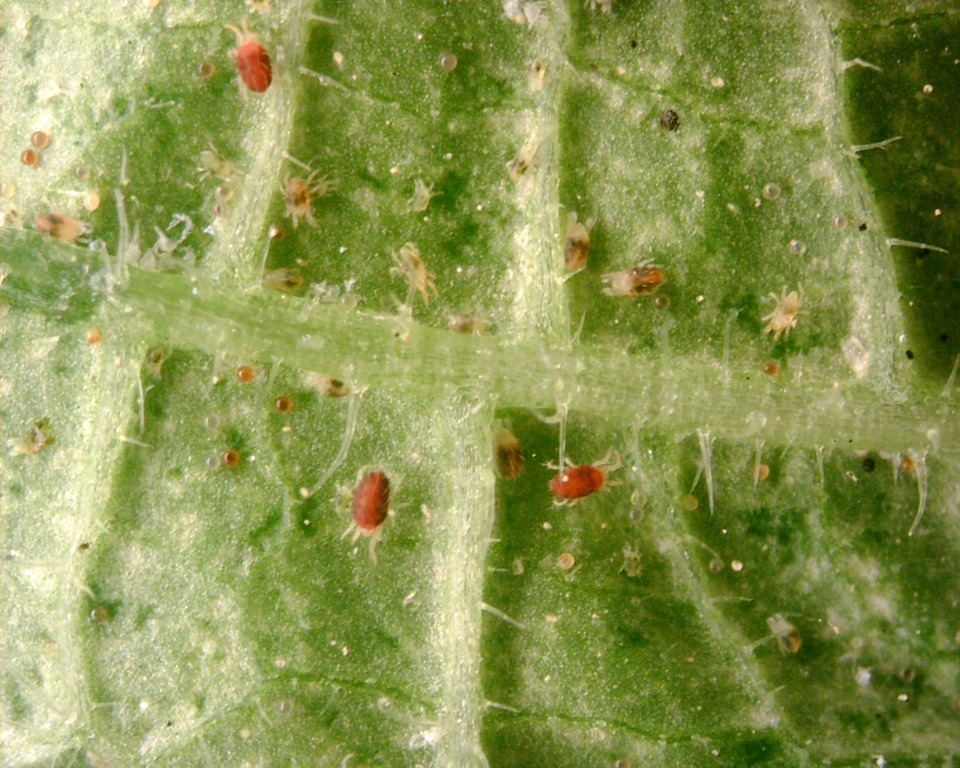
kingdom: Animalia
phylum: Arthropoda
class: Arachnida
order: Trombidiformes
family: Tetranychidae
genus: Tetranychus
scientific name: Tetranychus urticae
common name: Carmine spider mite
